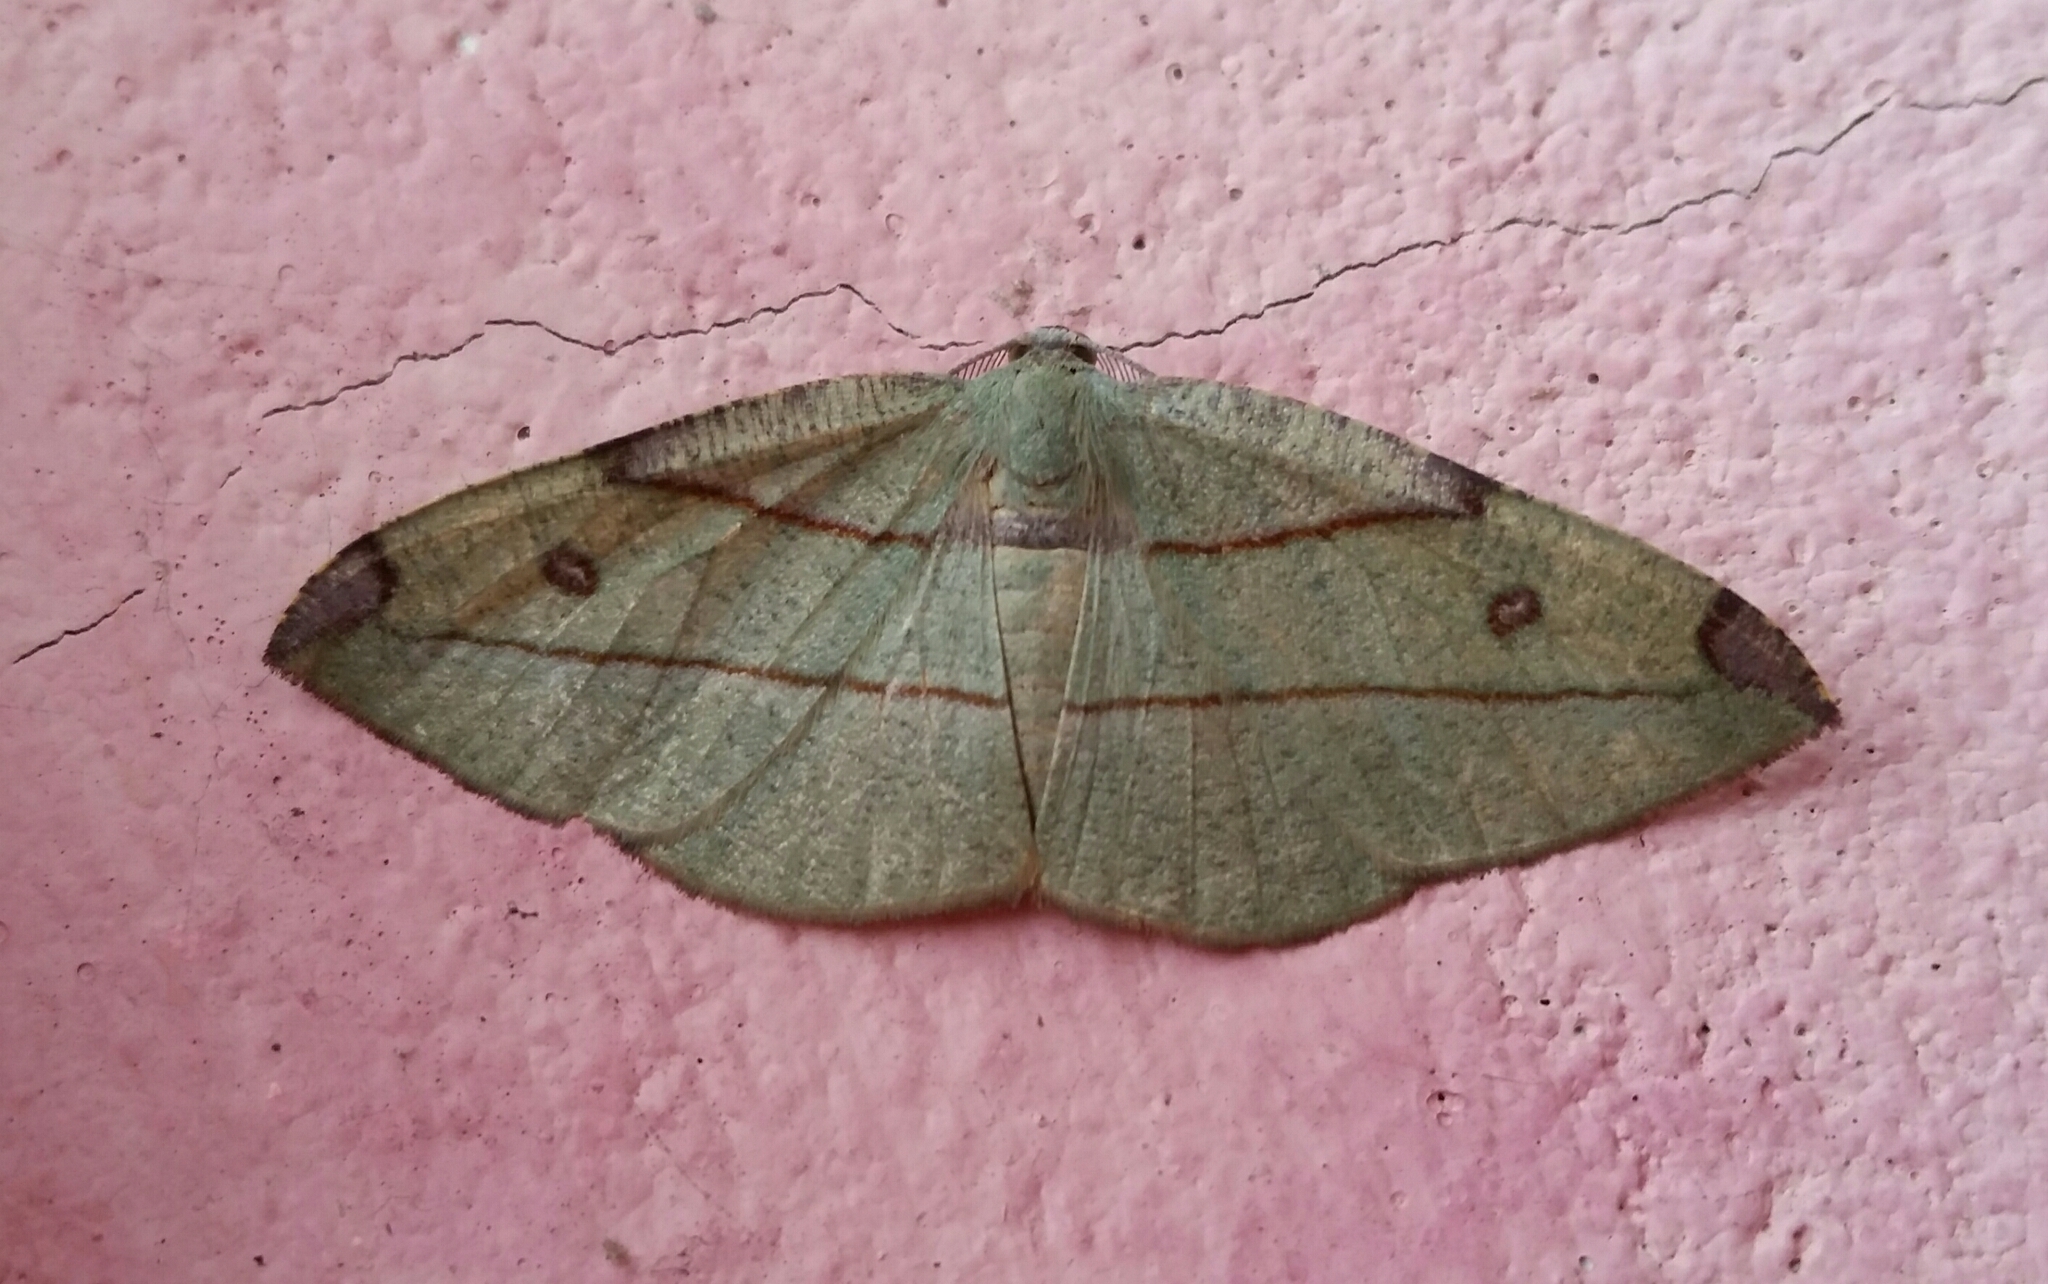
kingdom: Animalia
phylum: Arthropoda
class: Insecta
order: Lepidoptera
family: Geometridae
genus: Hypochrosis
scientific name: Hypochrosis hyadaria
